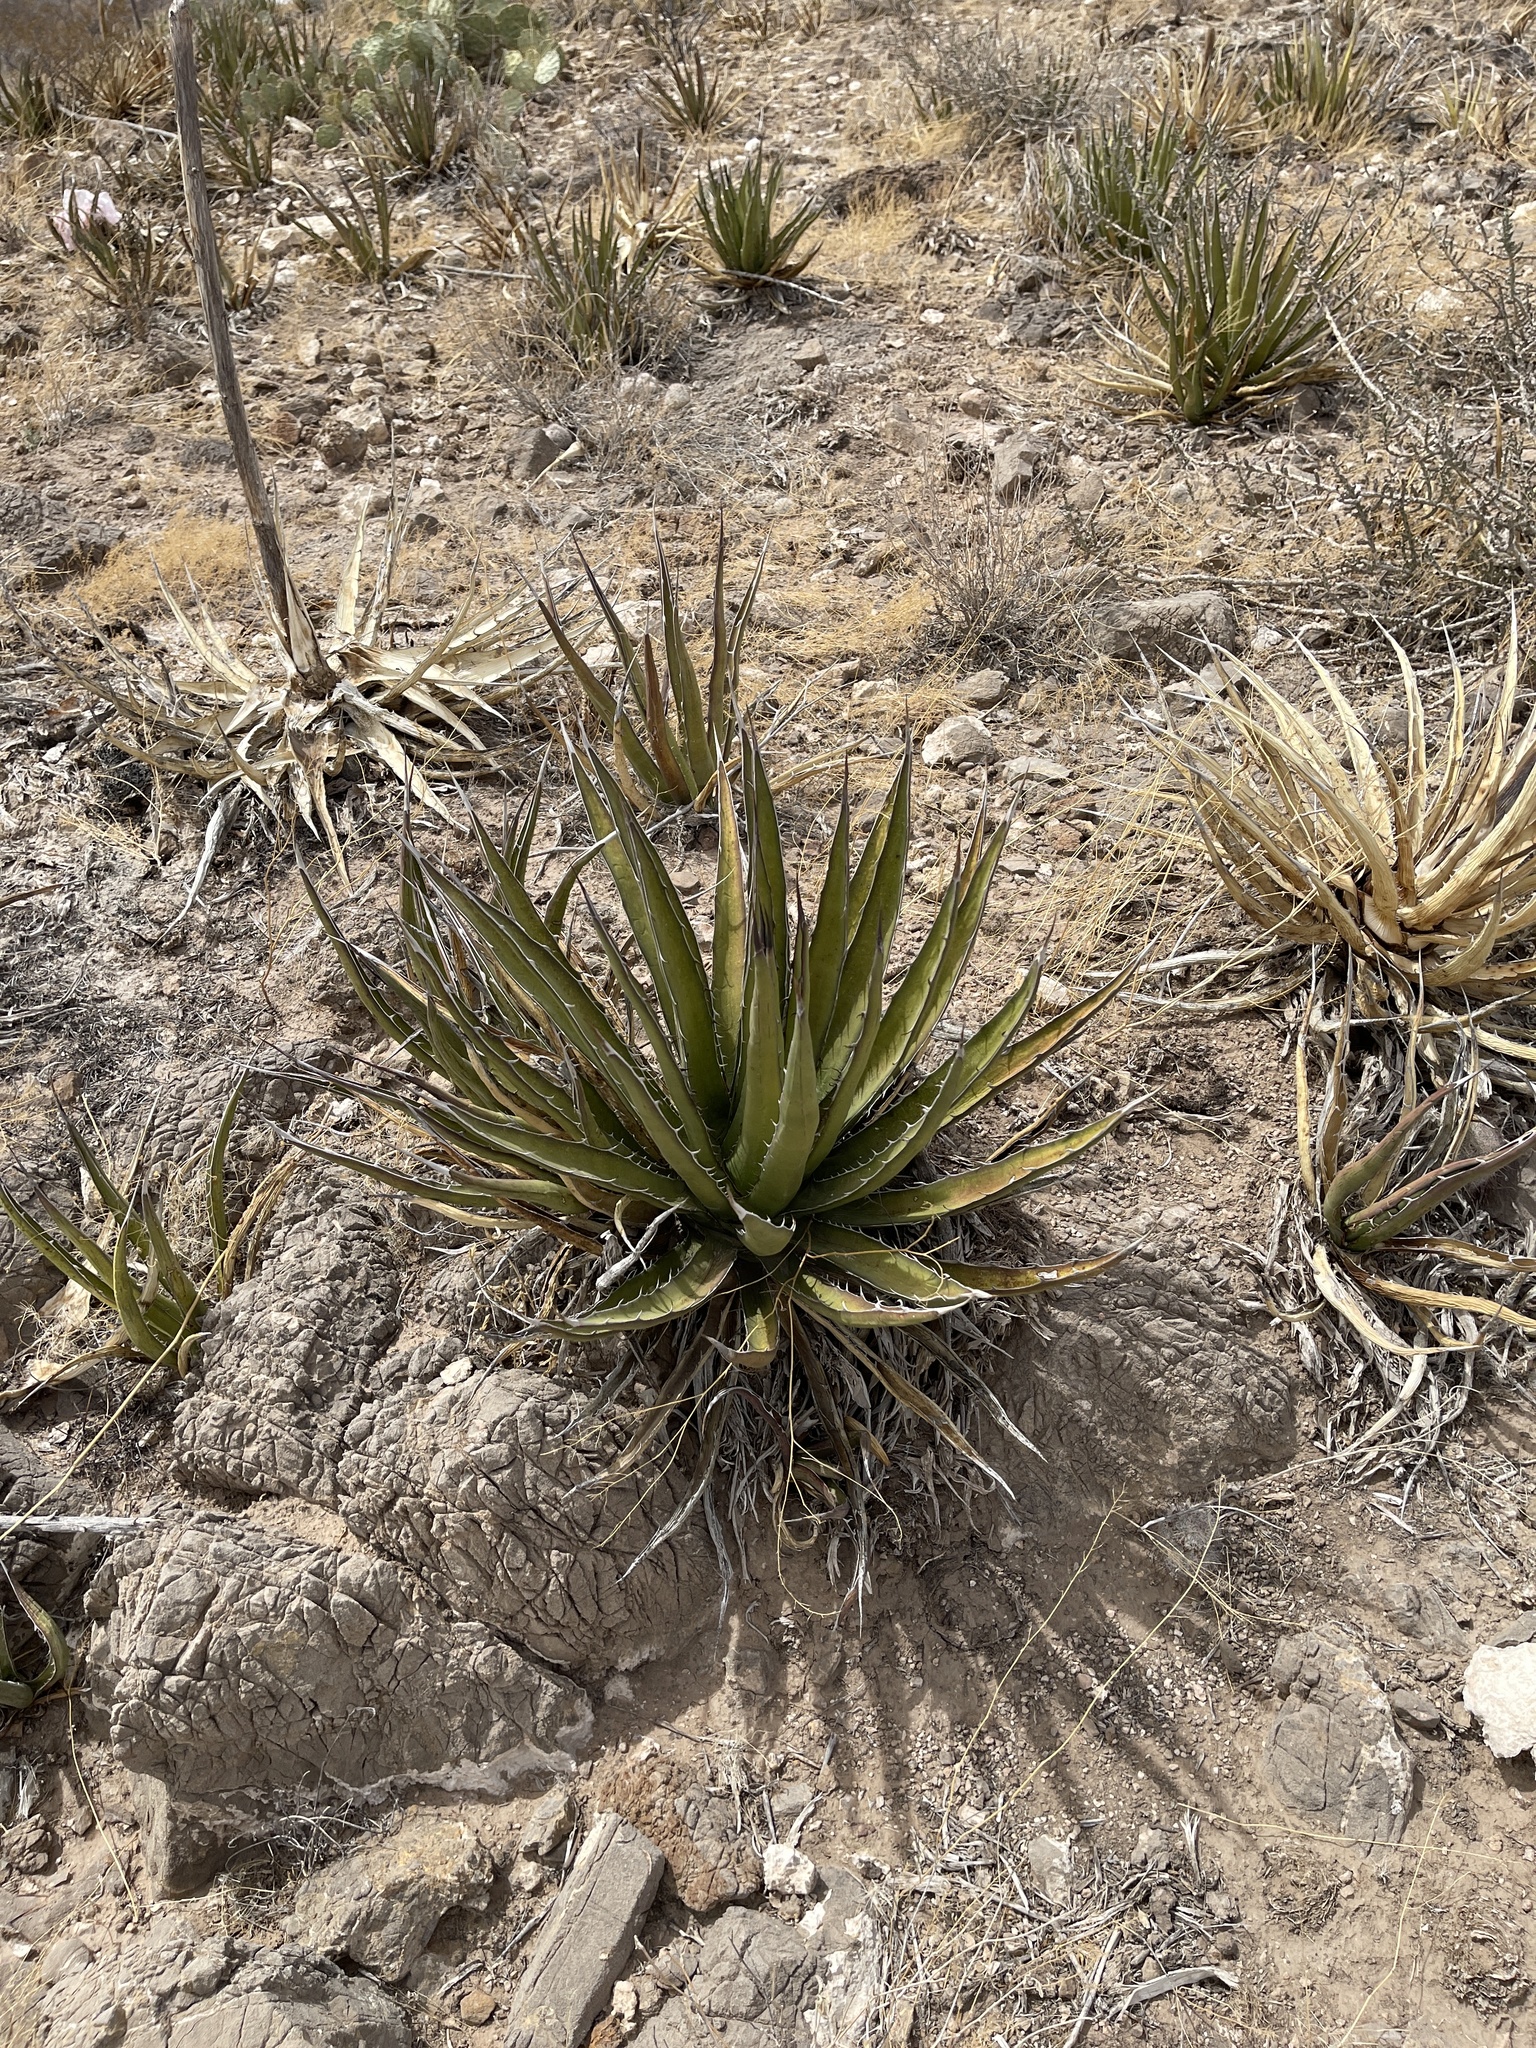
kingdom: Plantae
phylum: Tracheophyta
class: Liliopsida
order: Asparagales
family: Asparagaceae
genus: Agave
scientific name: Agave lechuguilla
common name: Lecheguilla agave
